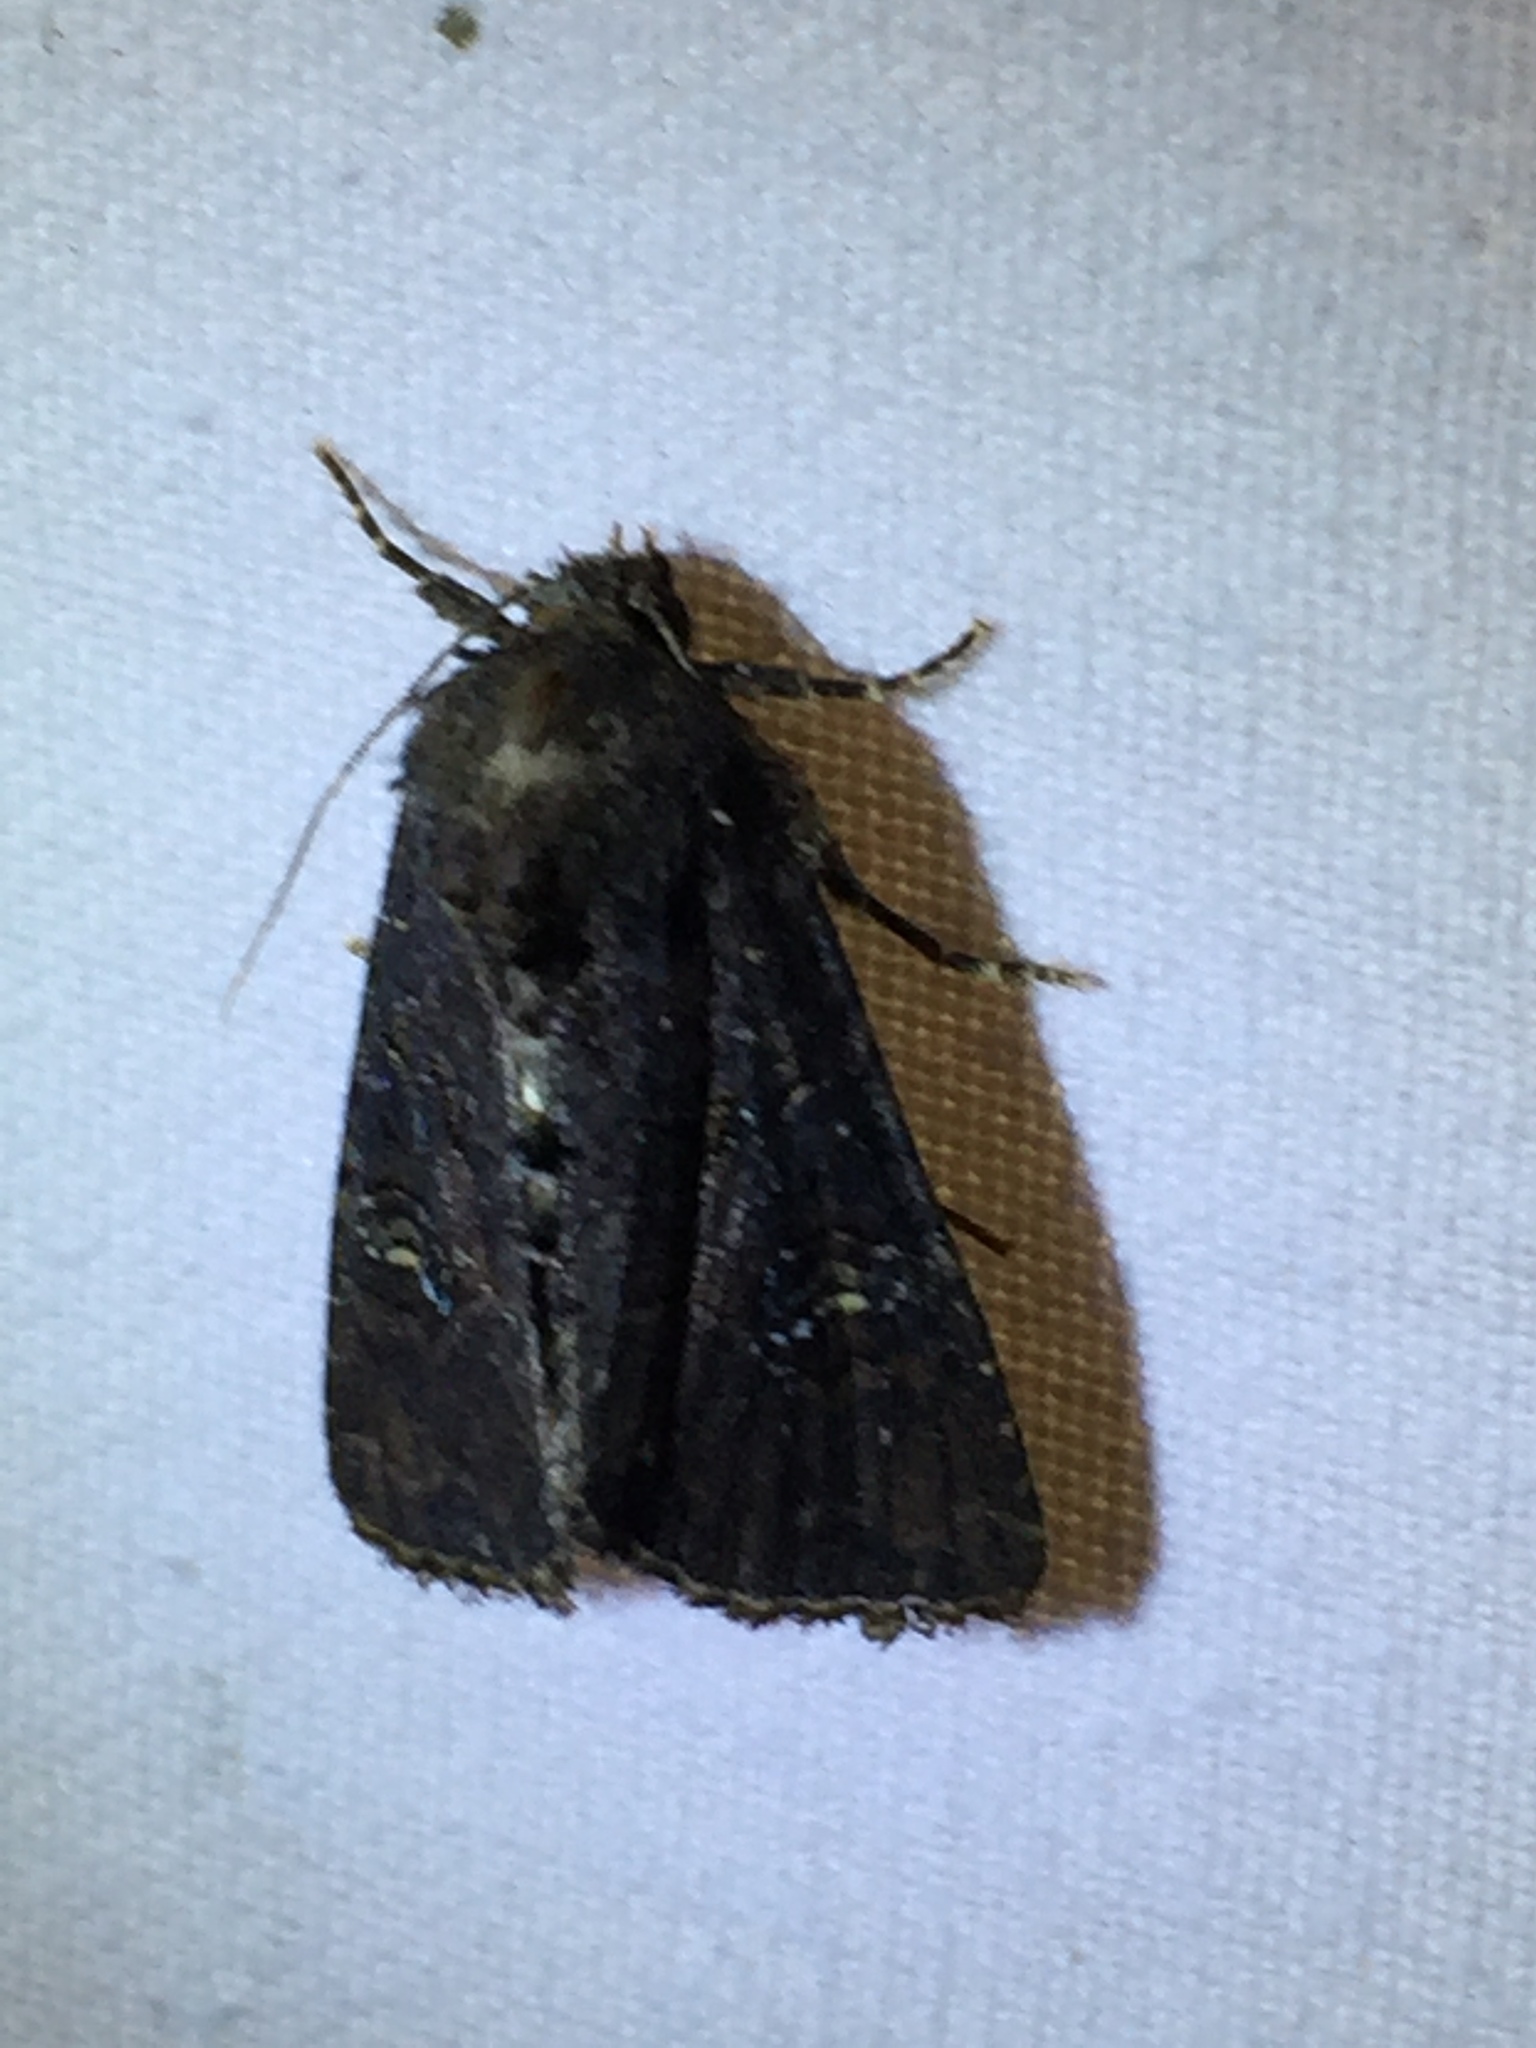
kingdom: Animalia
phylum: Arthropoda
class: Insecta
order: Lepidoptera
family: Noctuidae
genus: Mesapamea
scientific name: Mesapamea
